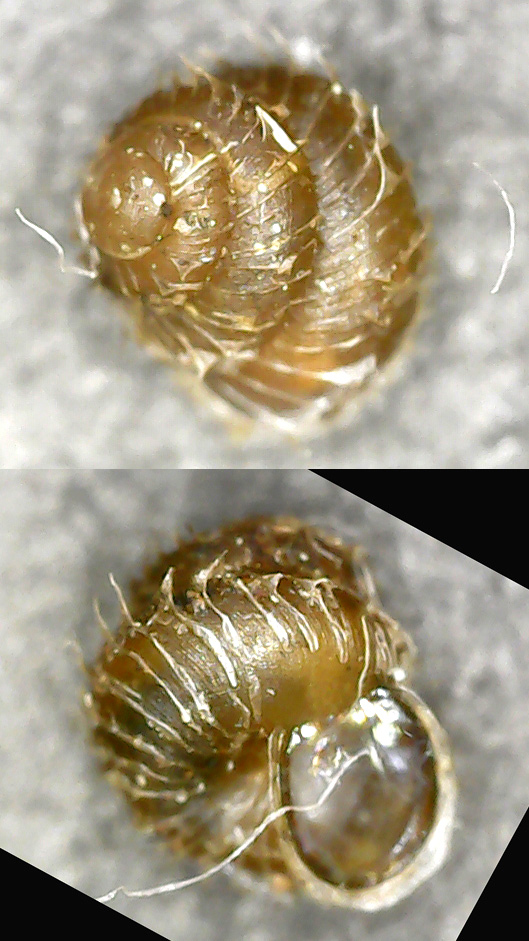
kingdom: Animalia
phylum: Mollusca
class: Gastropoda
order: Stylommatophora
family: Valloniidae
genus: Acanthinula
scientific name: Acanthinula aculeata
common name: Prickly snail
